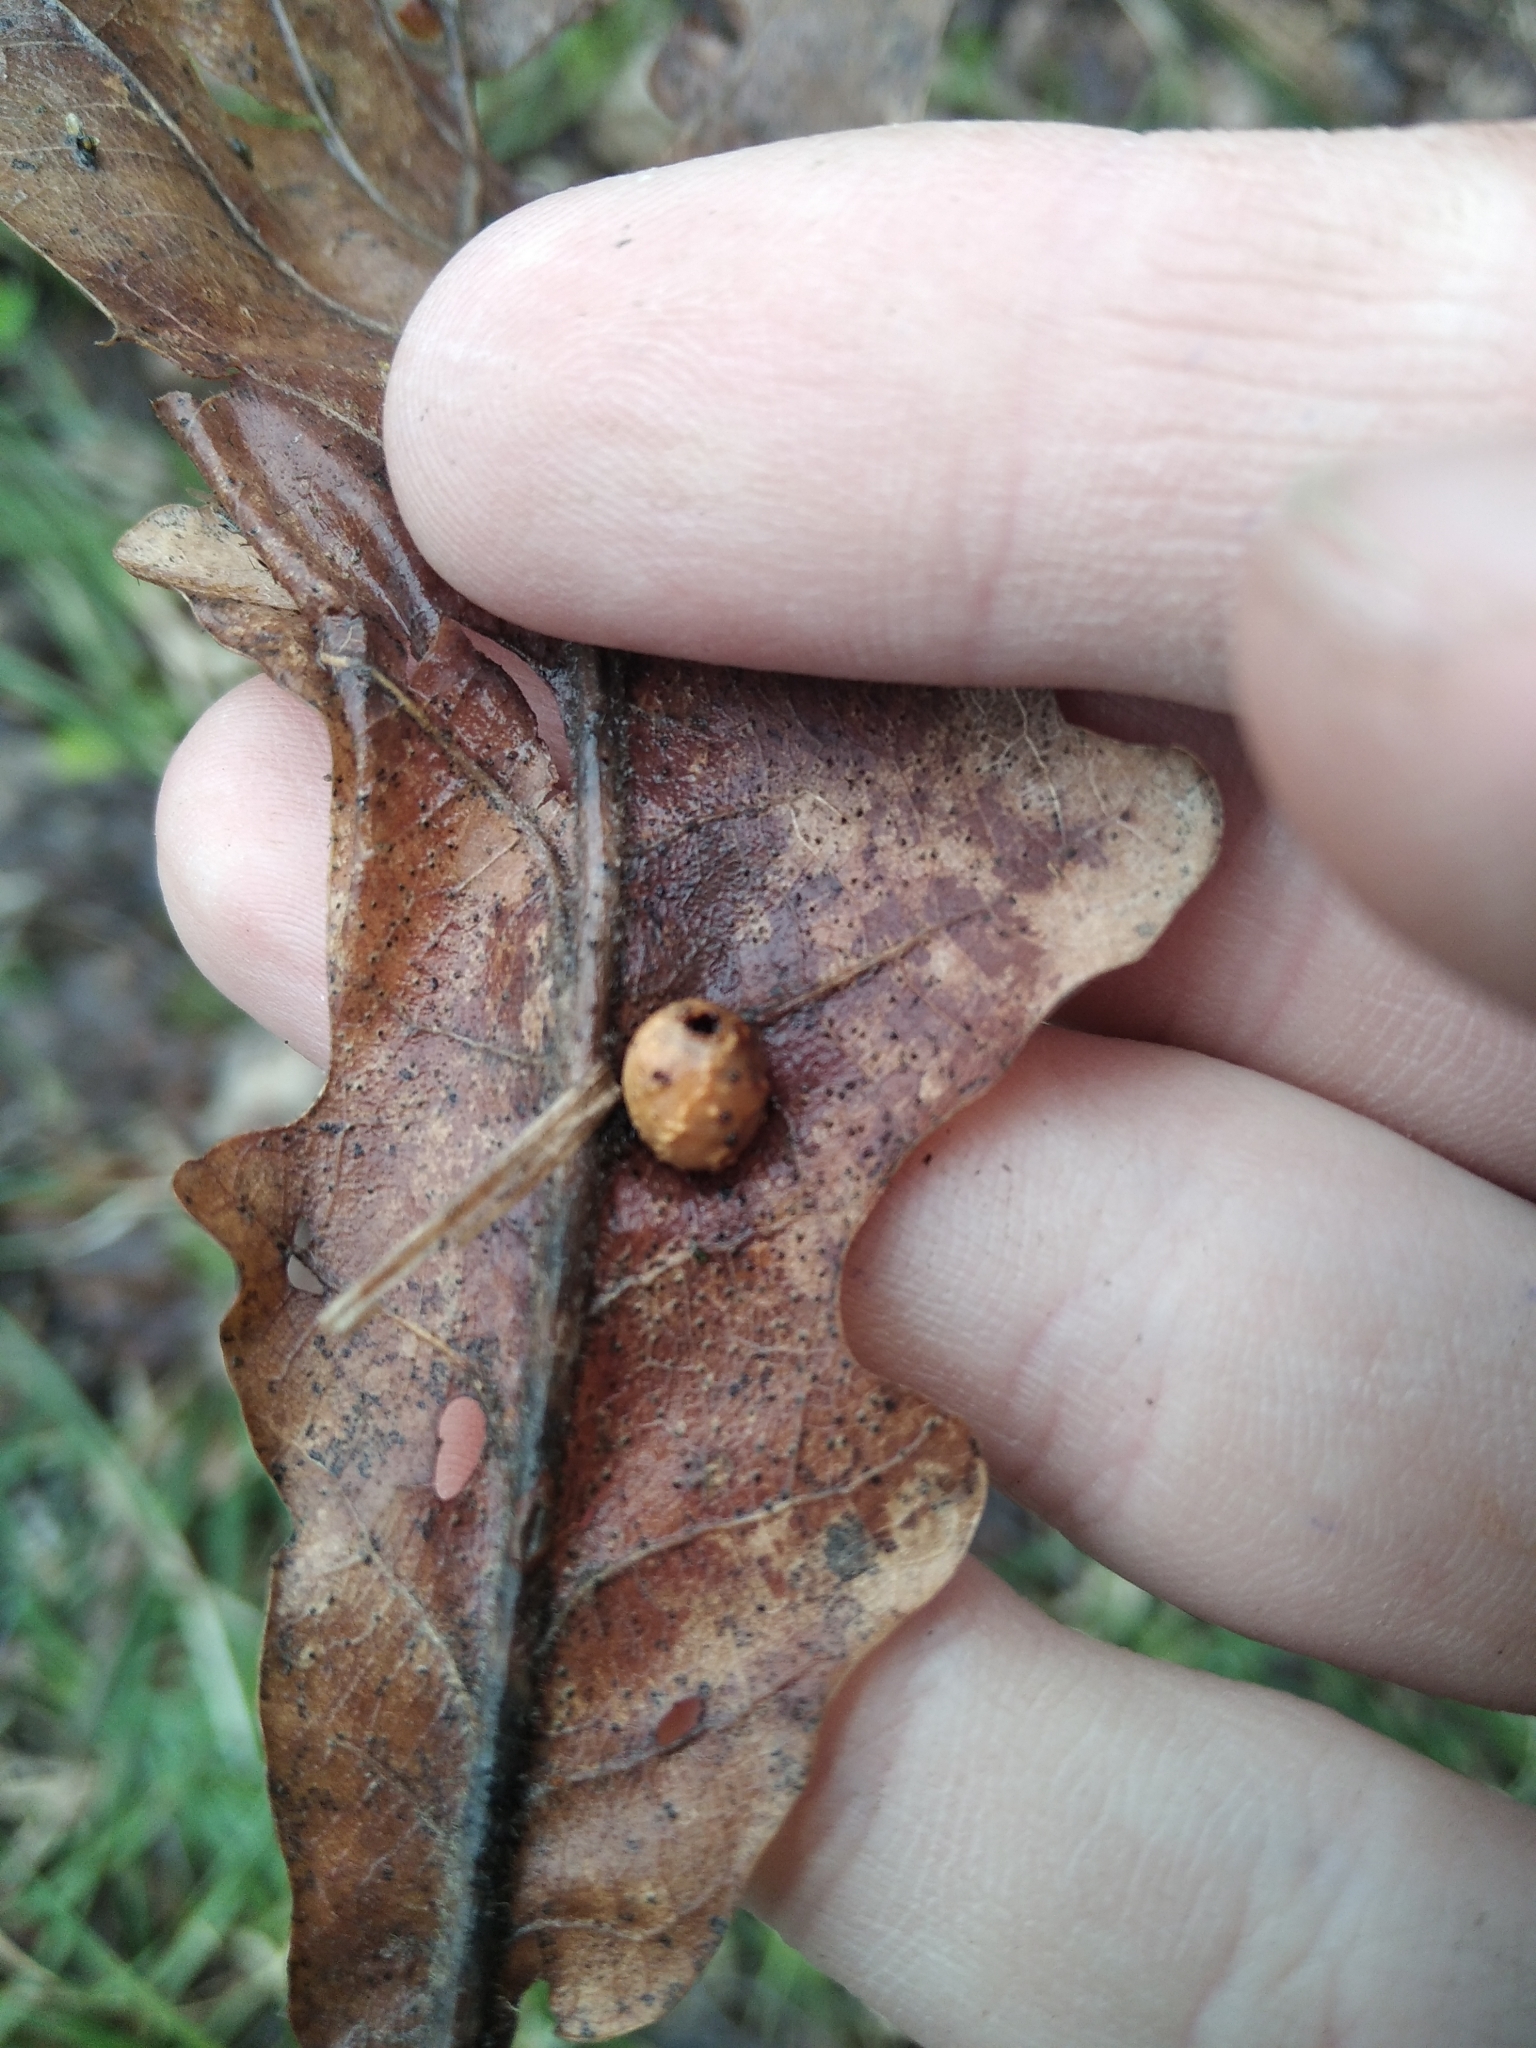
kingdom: Animalia
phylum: Arthropoda
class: Insecta
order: Hymenoptera
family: Cynipidae
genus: Cynips
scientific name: Cynips longiventris
